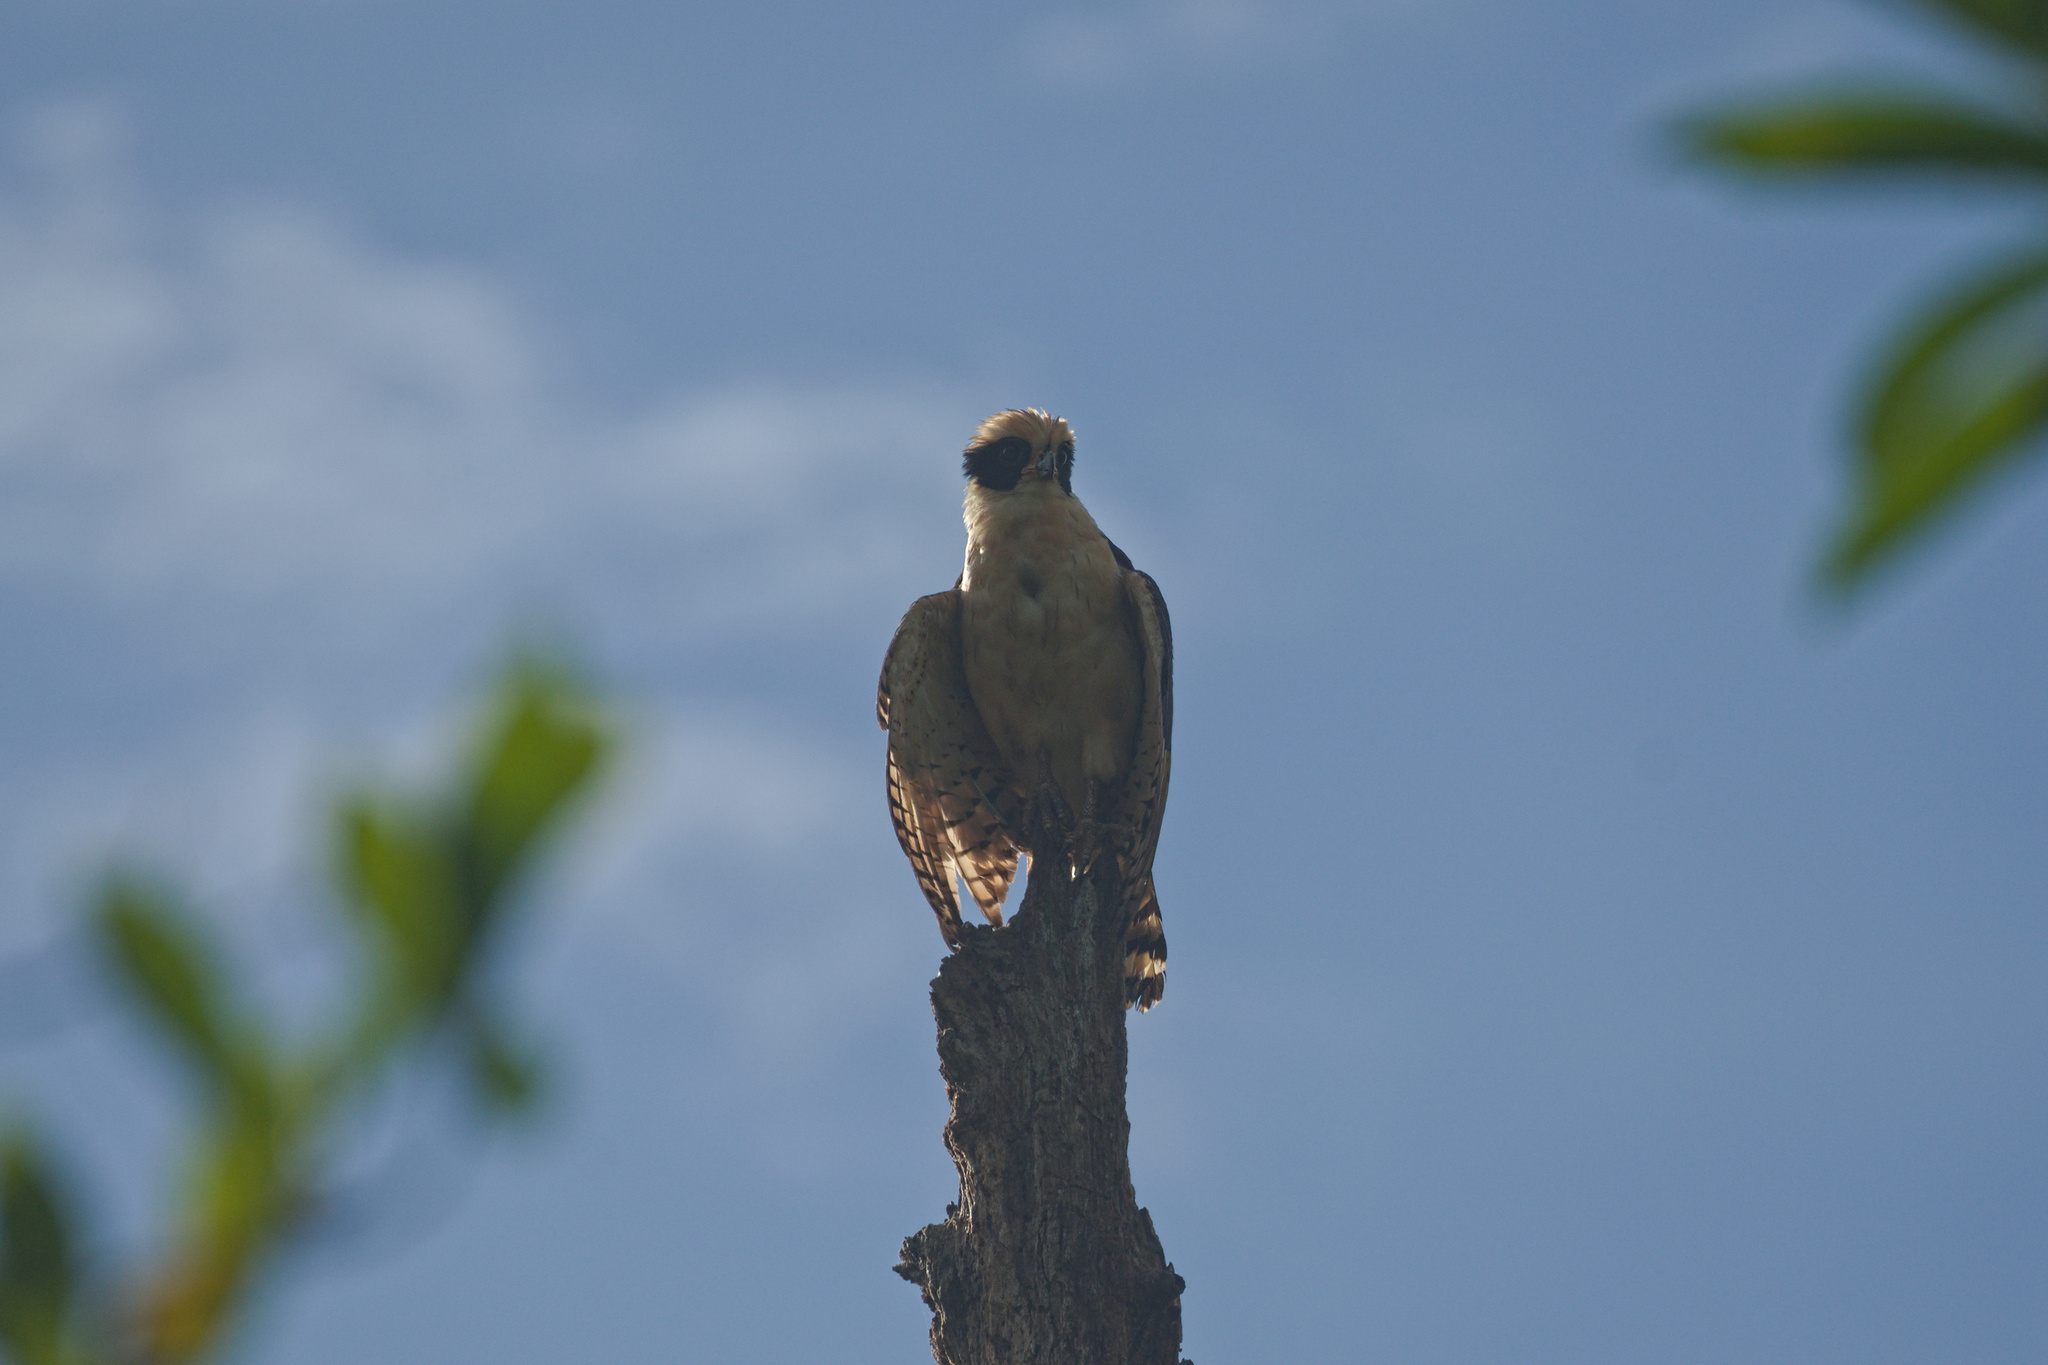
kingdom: Animalia
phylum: Chordata
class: Aves
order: Falconiformes
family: Falconidae
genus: Herpetotheres
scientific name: Herpetotheres cachinnans
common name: Laughing falcon
